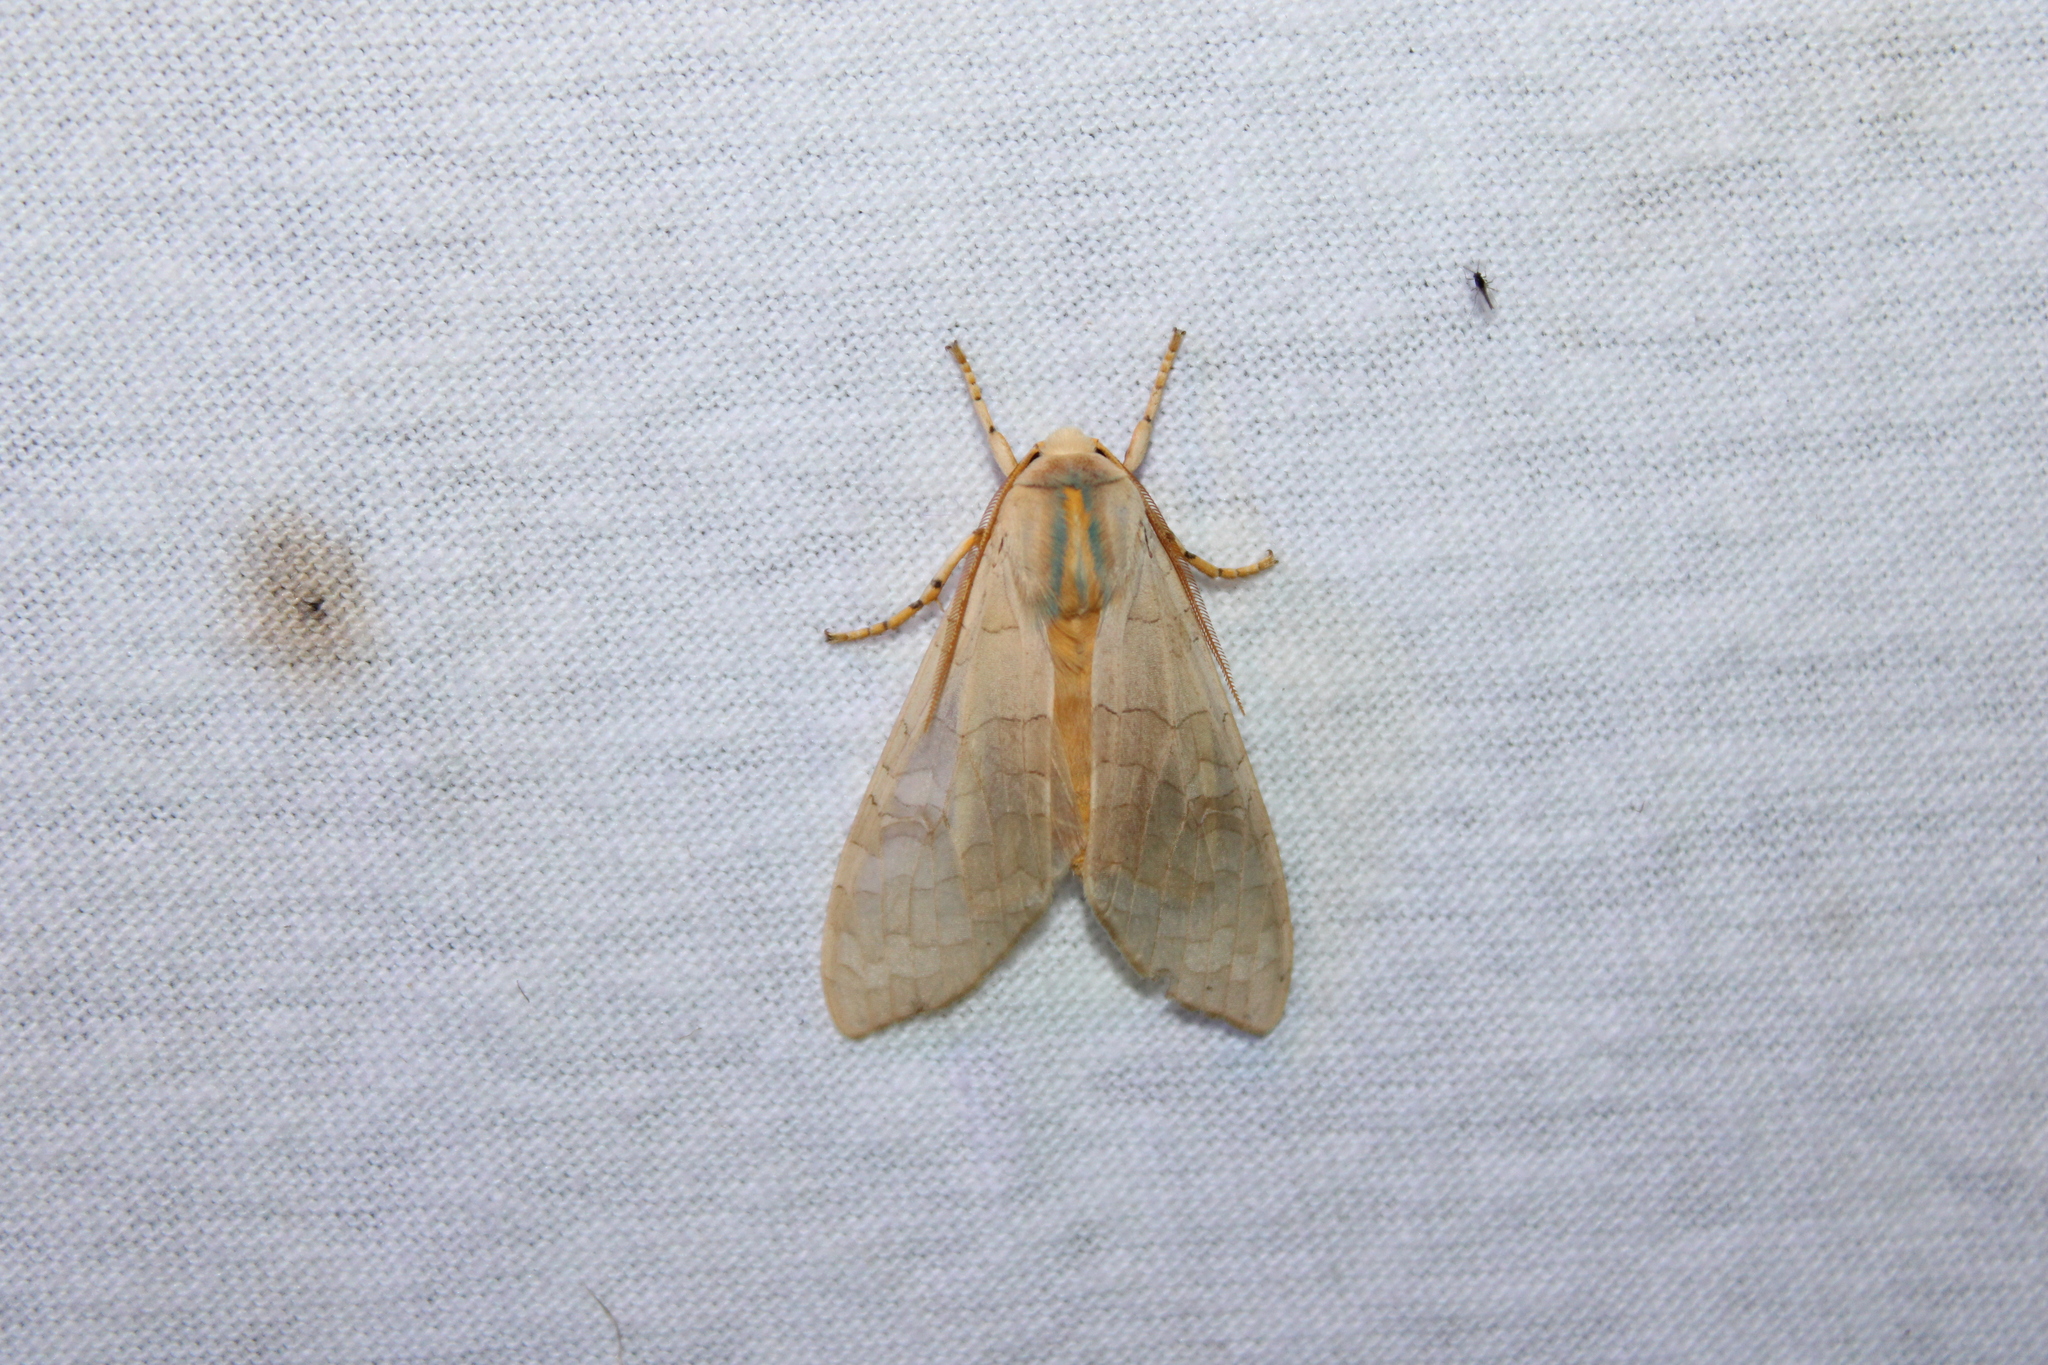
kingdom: Animalia
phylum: Arthropoda
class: Insecta
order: Lepidoptera
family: Erebidae
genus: Halysidota
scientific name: Halysidota
